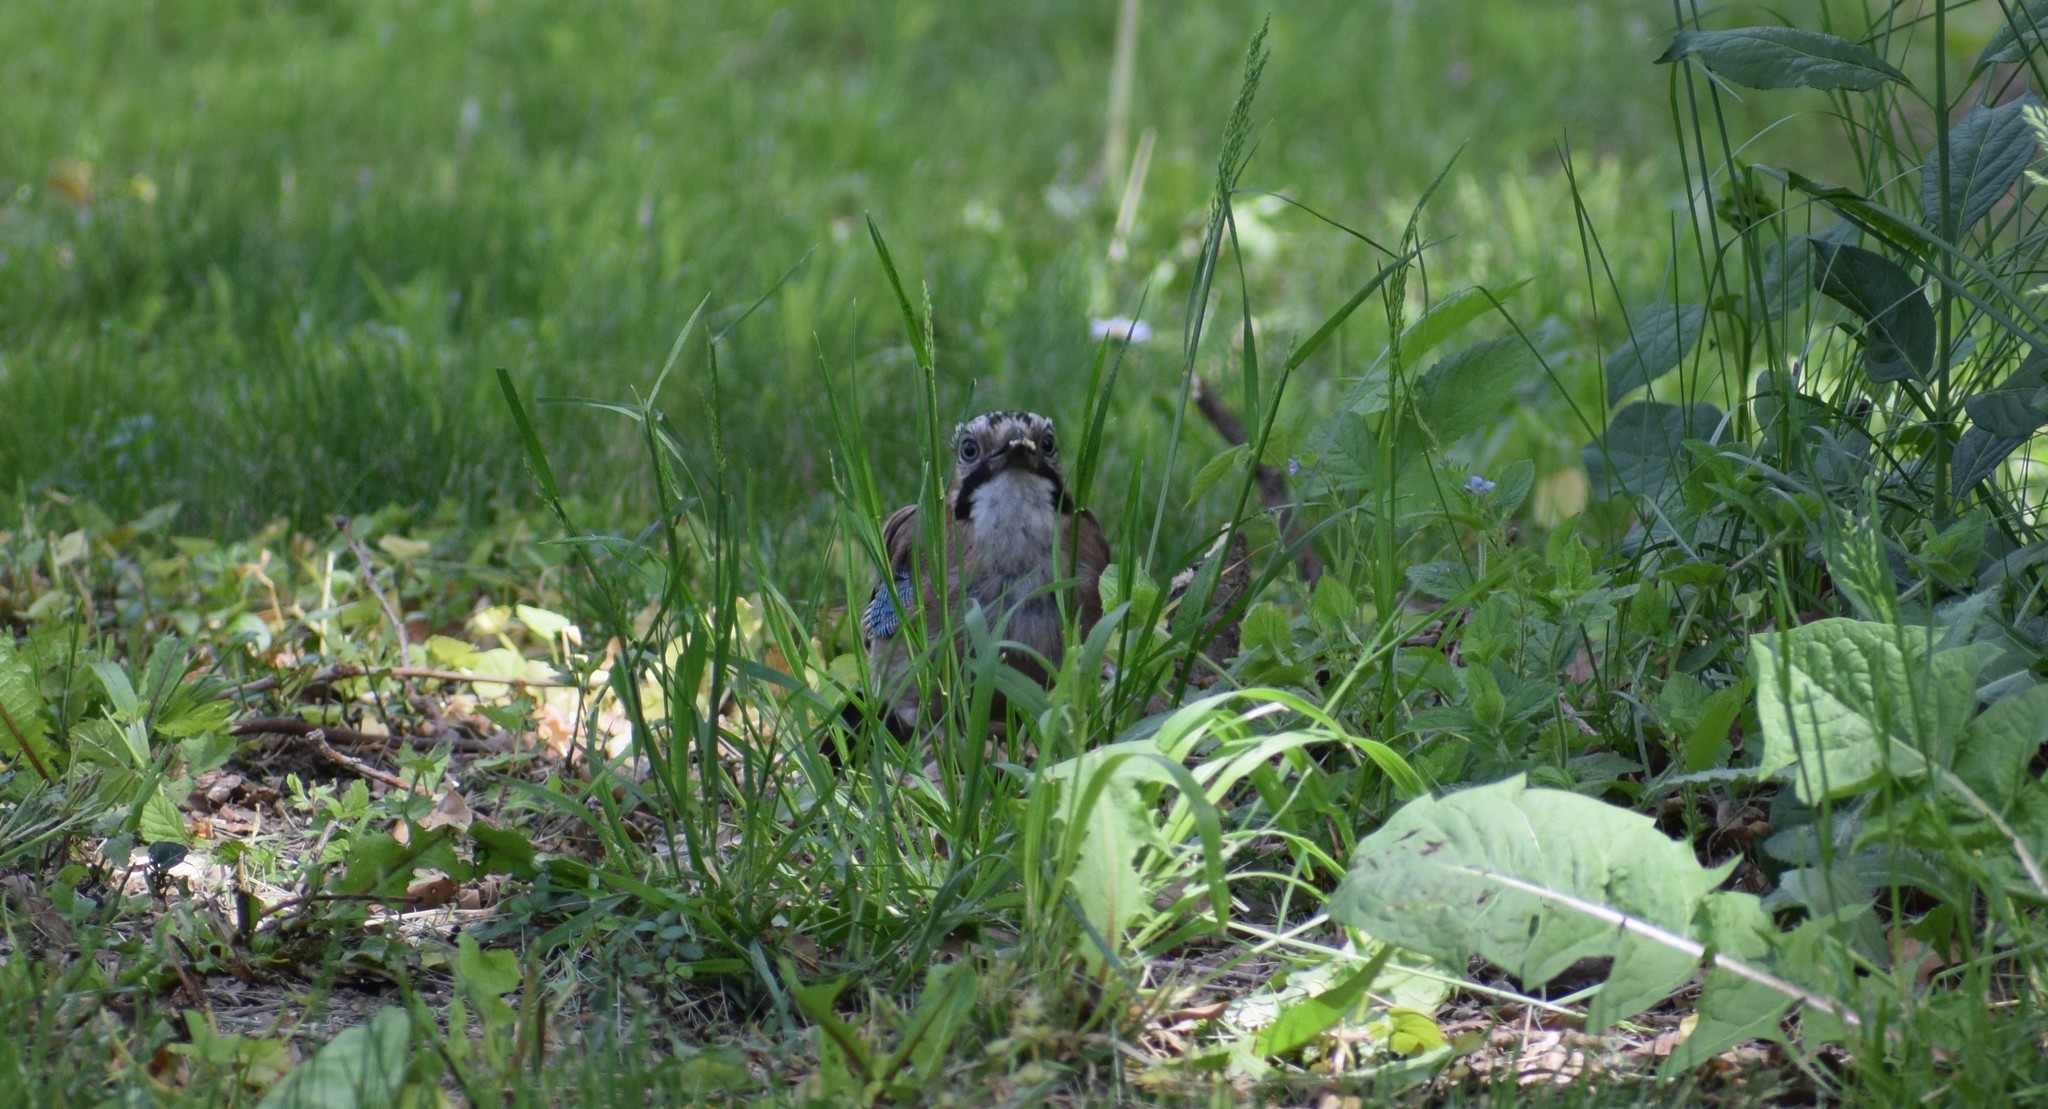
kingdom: Animalia
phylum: Chordata
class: Aves
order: Passeriformes
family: Corvidae
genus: Garrulus
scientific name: Garrulus glandarius
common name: Eurasian jay
